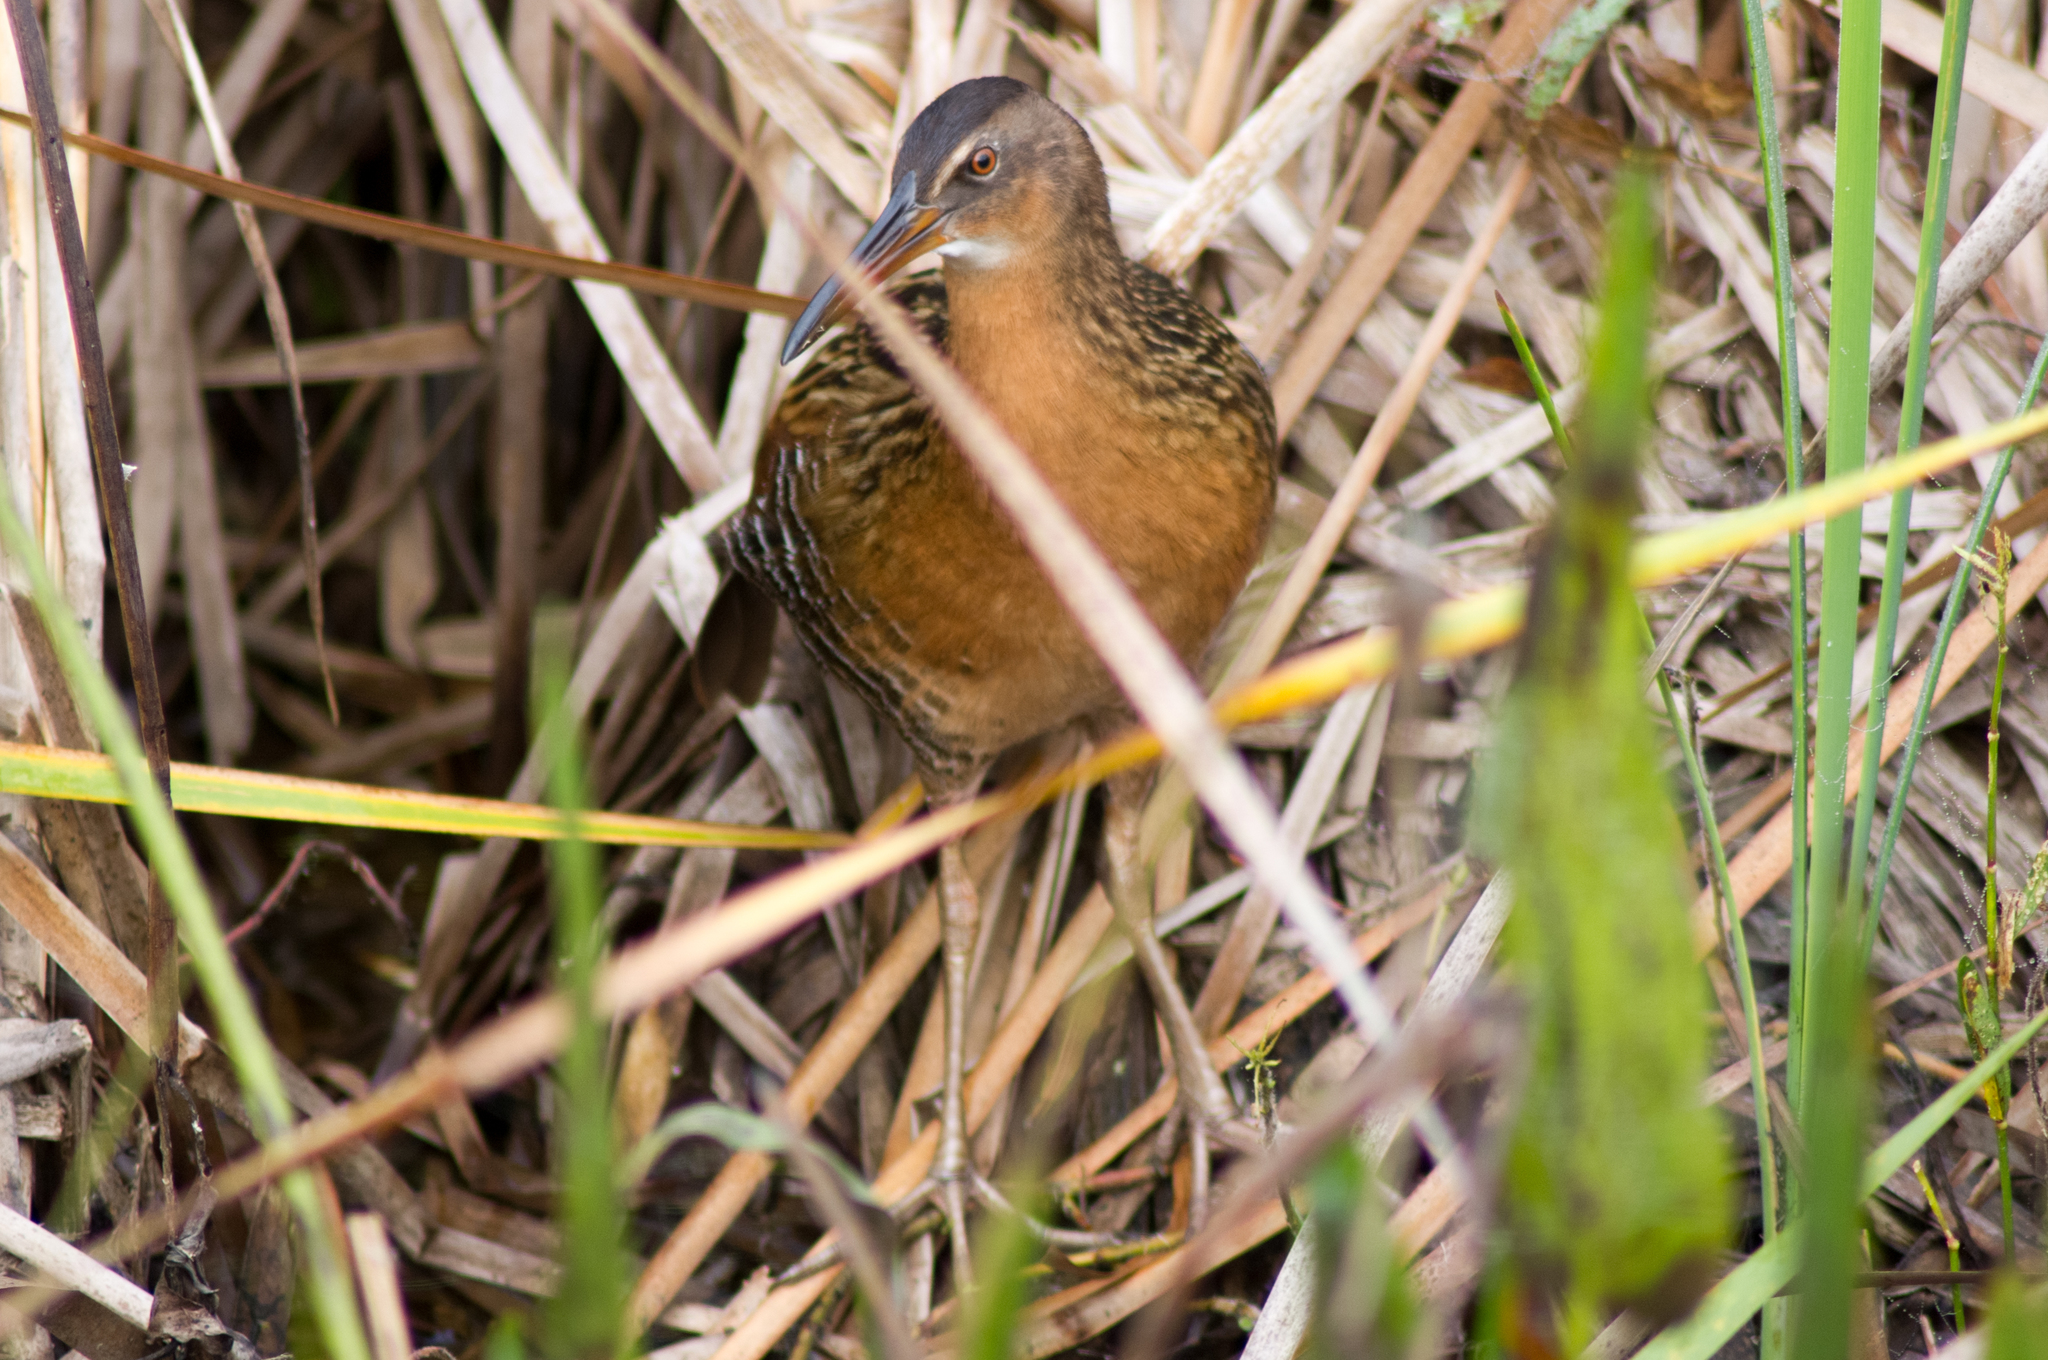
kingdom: Animalia
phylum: Chordata
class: Aves
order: Gruiformes
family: Rallidae
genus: Rallus
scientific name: Rallus elegans
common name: King rail
